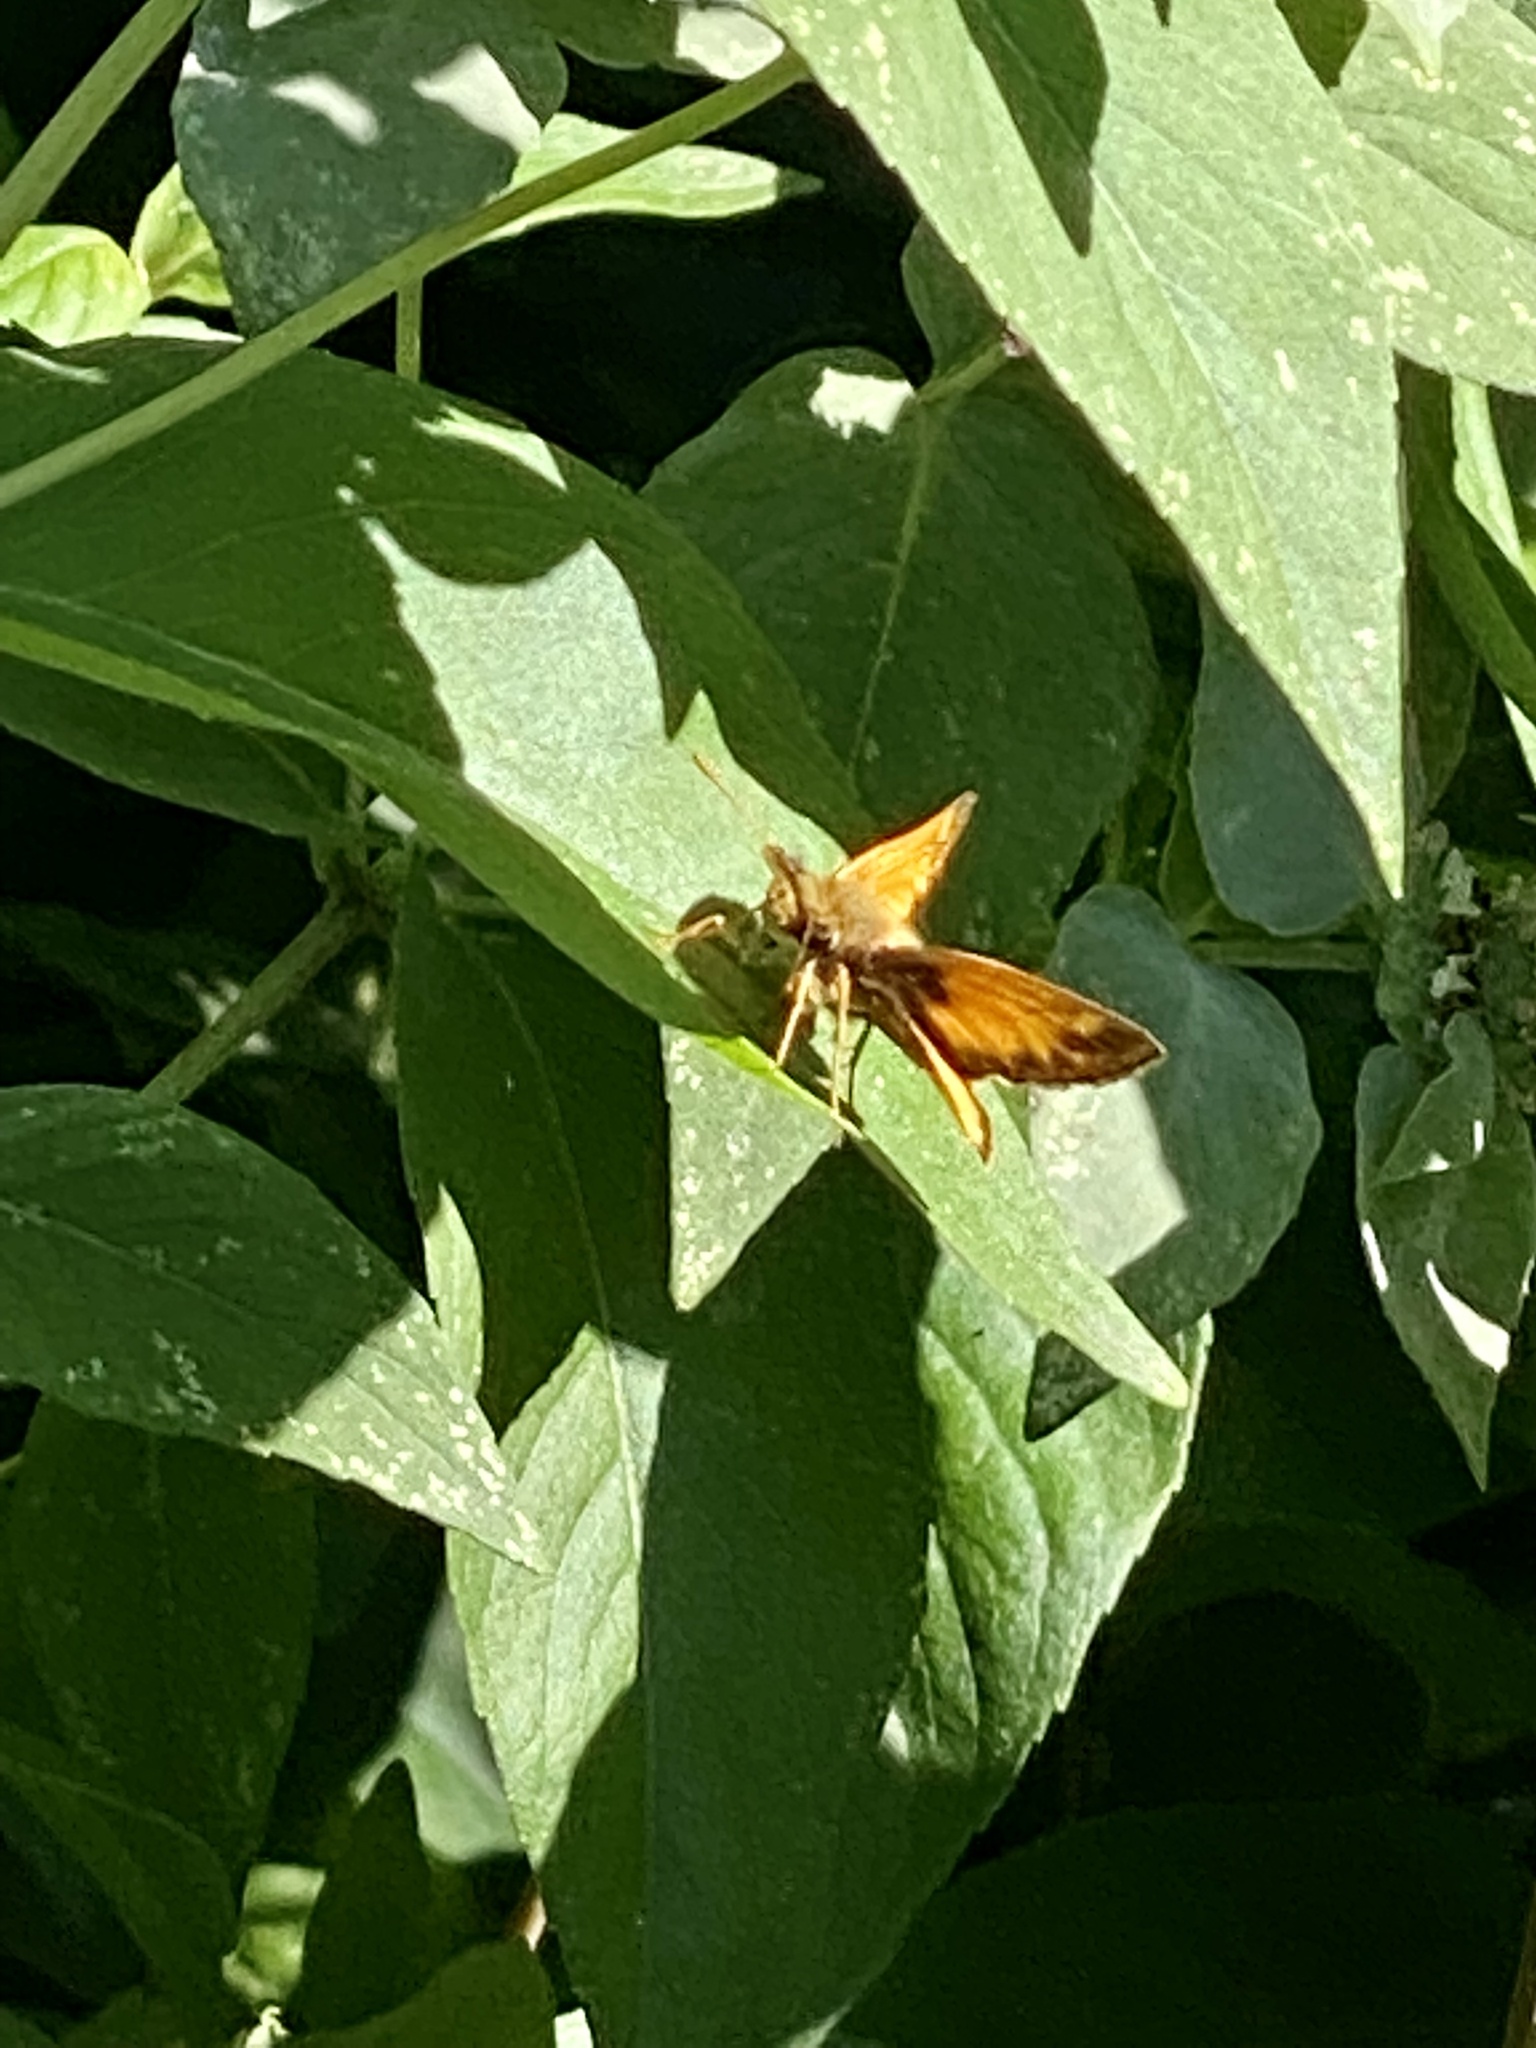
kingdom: Animalia
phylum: Arthropoda
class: Insecta
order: Lepidoptera
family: Hesperiidae
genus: Lon
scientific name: Lon zabulon
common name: Zabulon skipper
